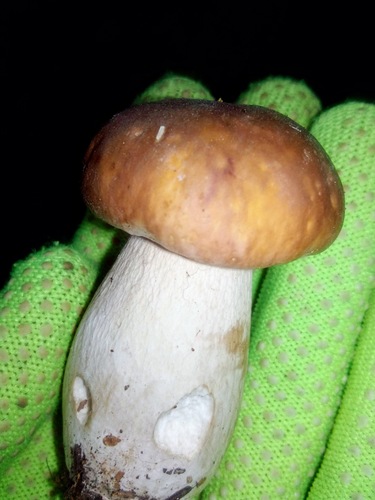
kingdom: Fungi
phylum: Basidiomycota
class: Agaricomycetes
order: Boletales
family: Boletaceae
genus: Boletus
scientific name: Boletus edulis
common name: Cep
